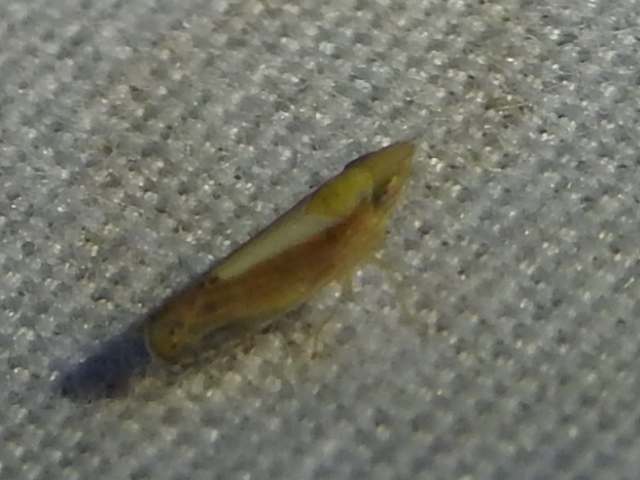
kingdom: Animalia
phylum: Arthropoda
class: Insecta
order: Hemiptera
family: Cicadellidae
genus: Scaphytopius
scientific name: Scaphytopius elegans
